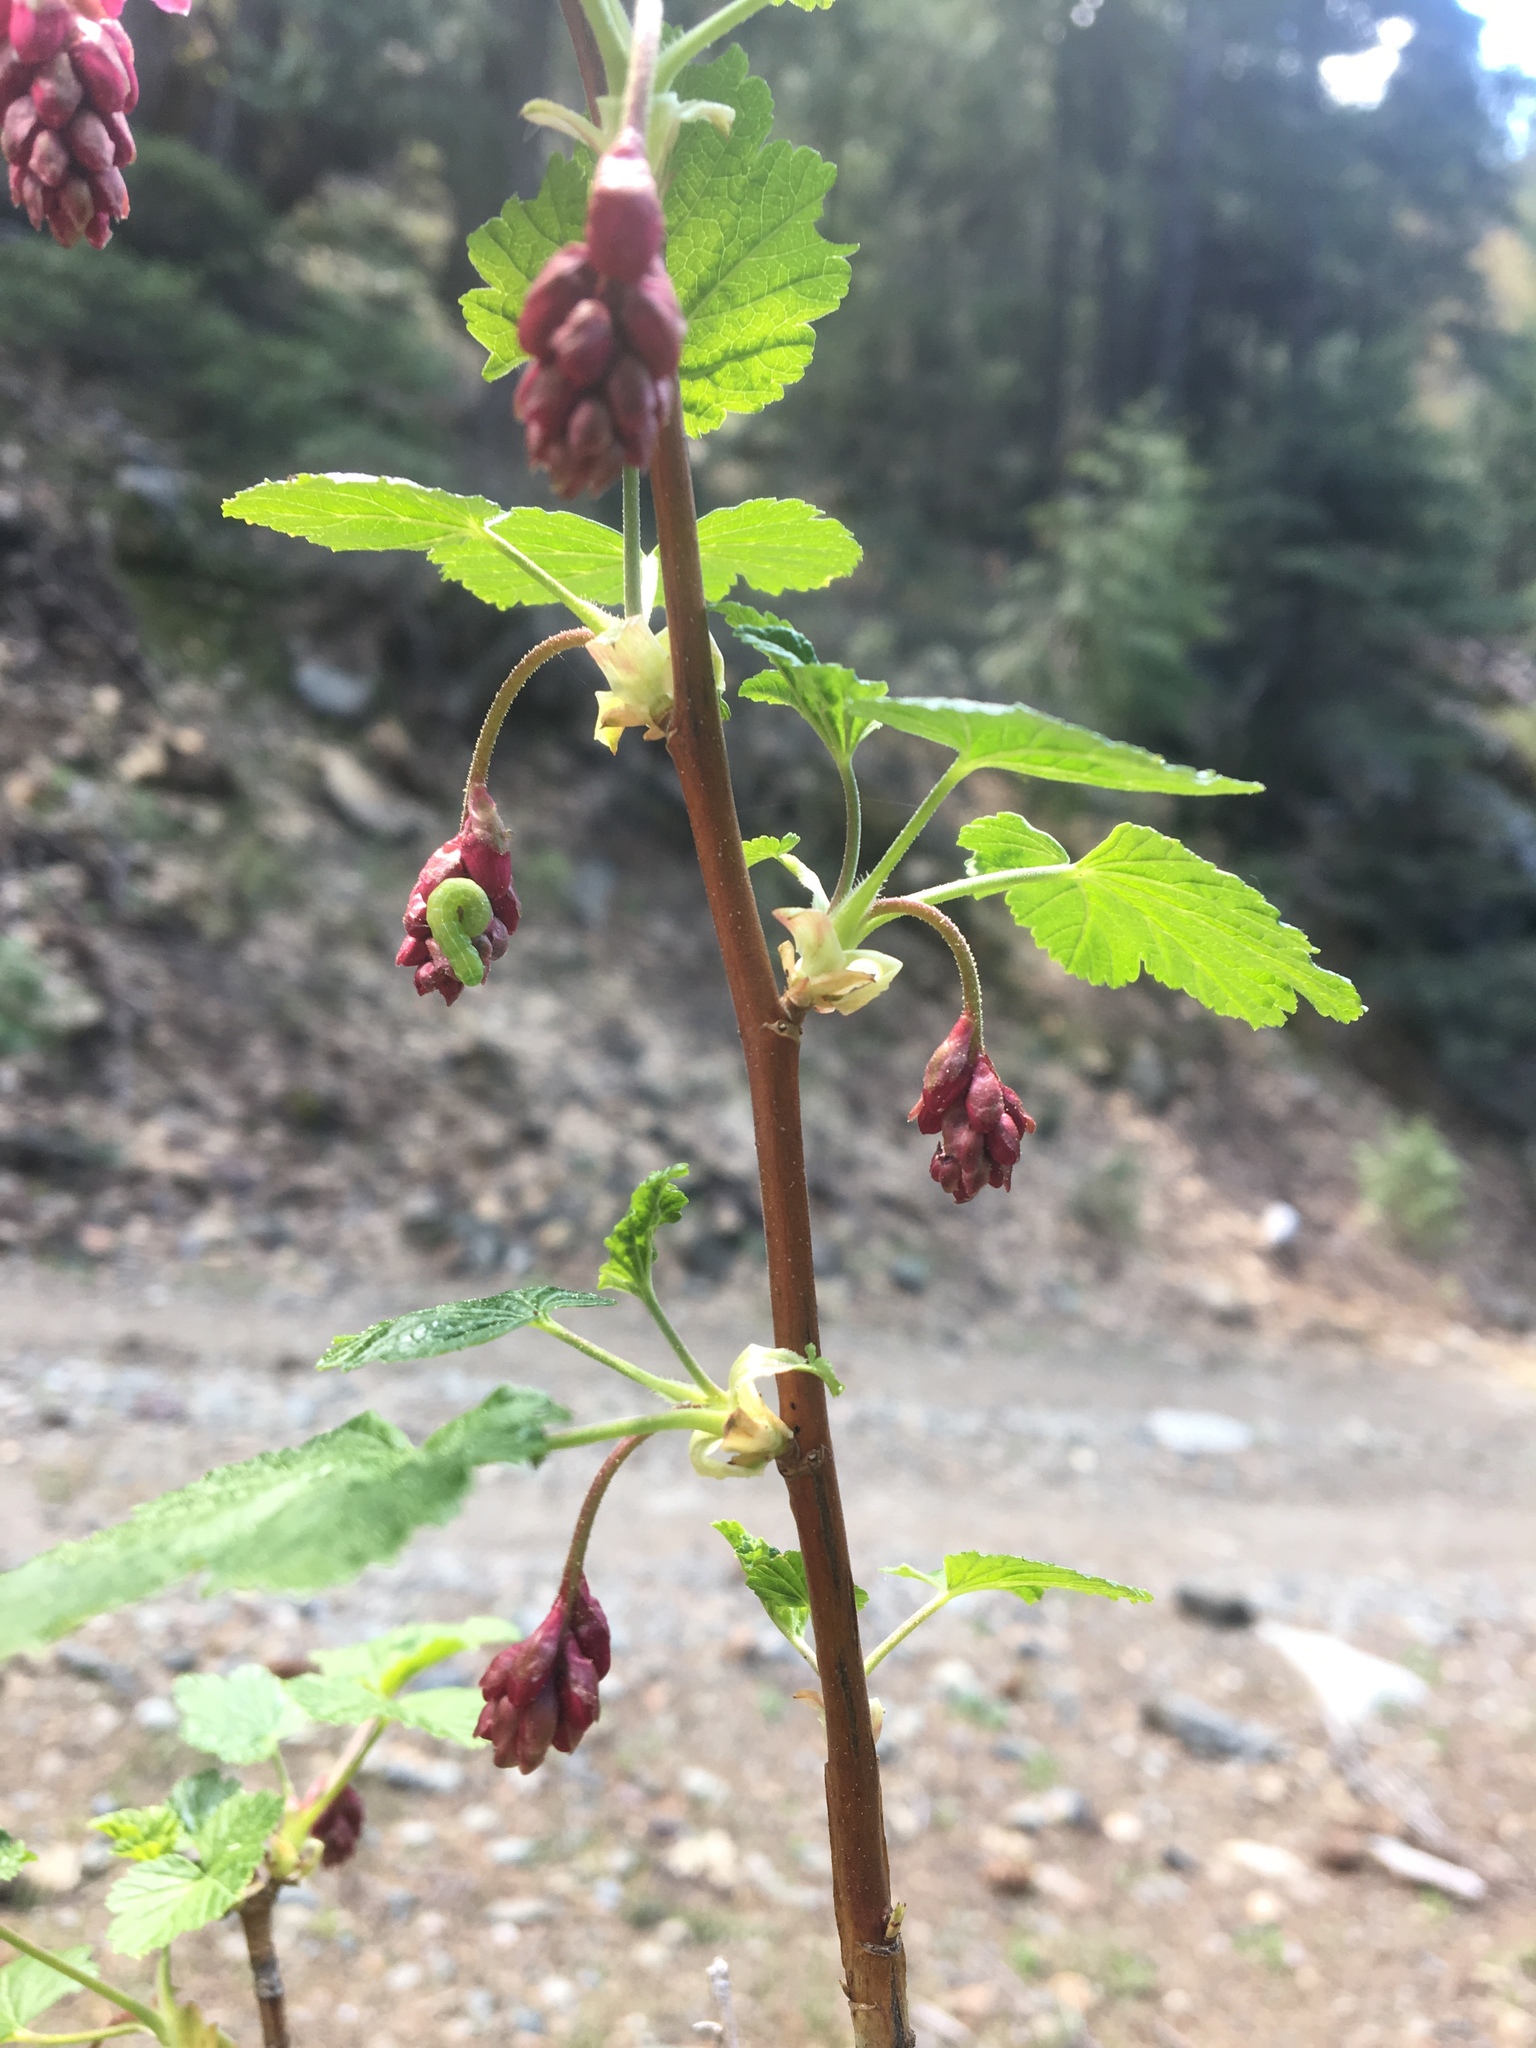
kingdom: Plantae
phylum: Tracheophyta
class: Magnoliopsida
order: Saxifragales
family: Grossulariaceae
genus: Ribes
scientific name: Ribes nevadense
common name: Mountain pink currant
